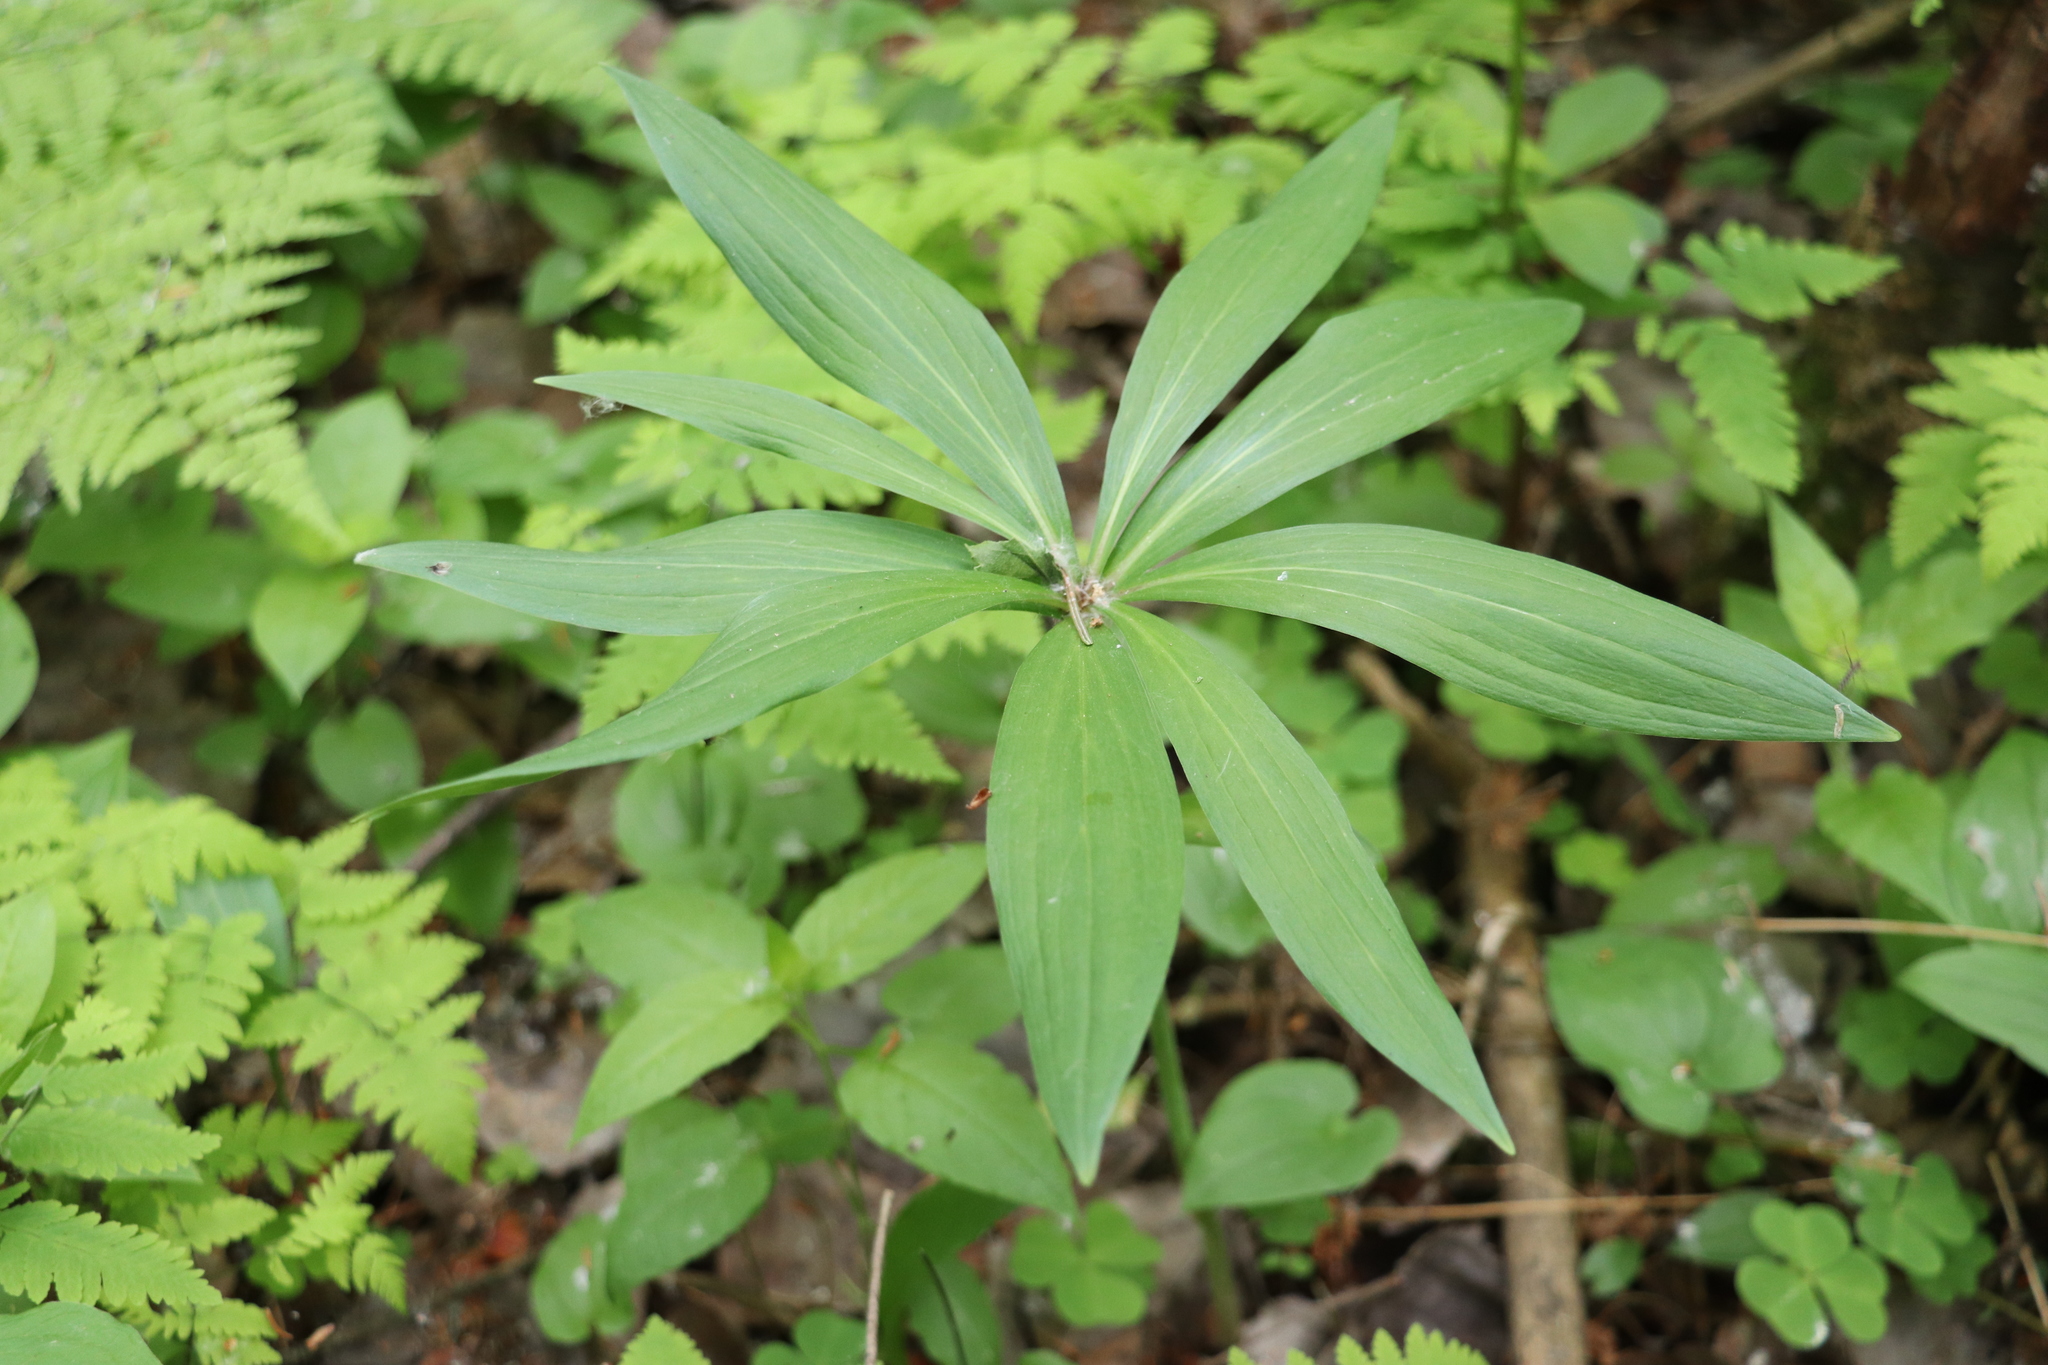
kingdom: Plantae
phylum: Tracheophyta
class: Liliopsida
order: Liliales
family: Liliaceae
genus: Lilium
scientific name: Lilium martagon
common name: Martagon lily
